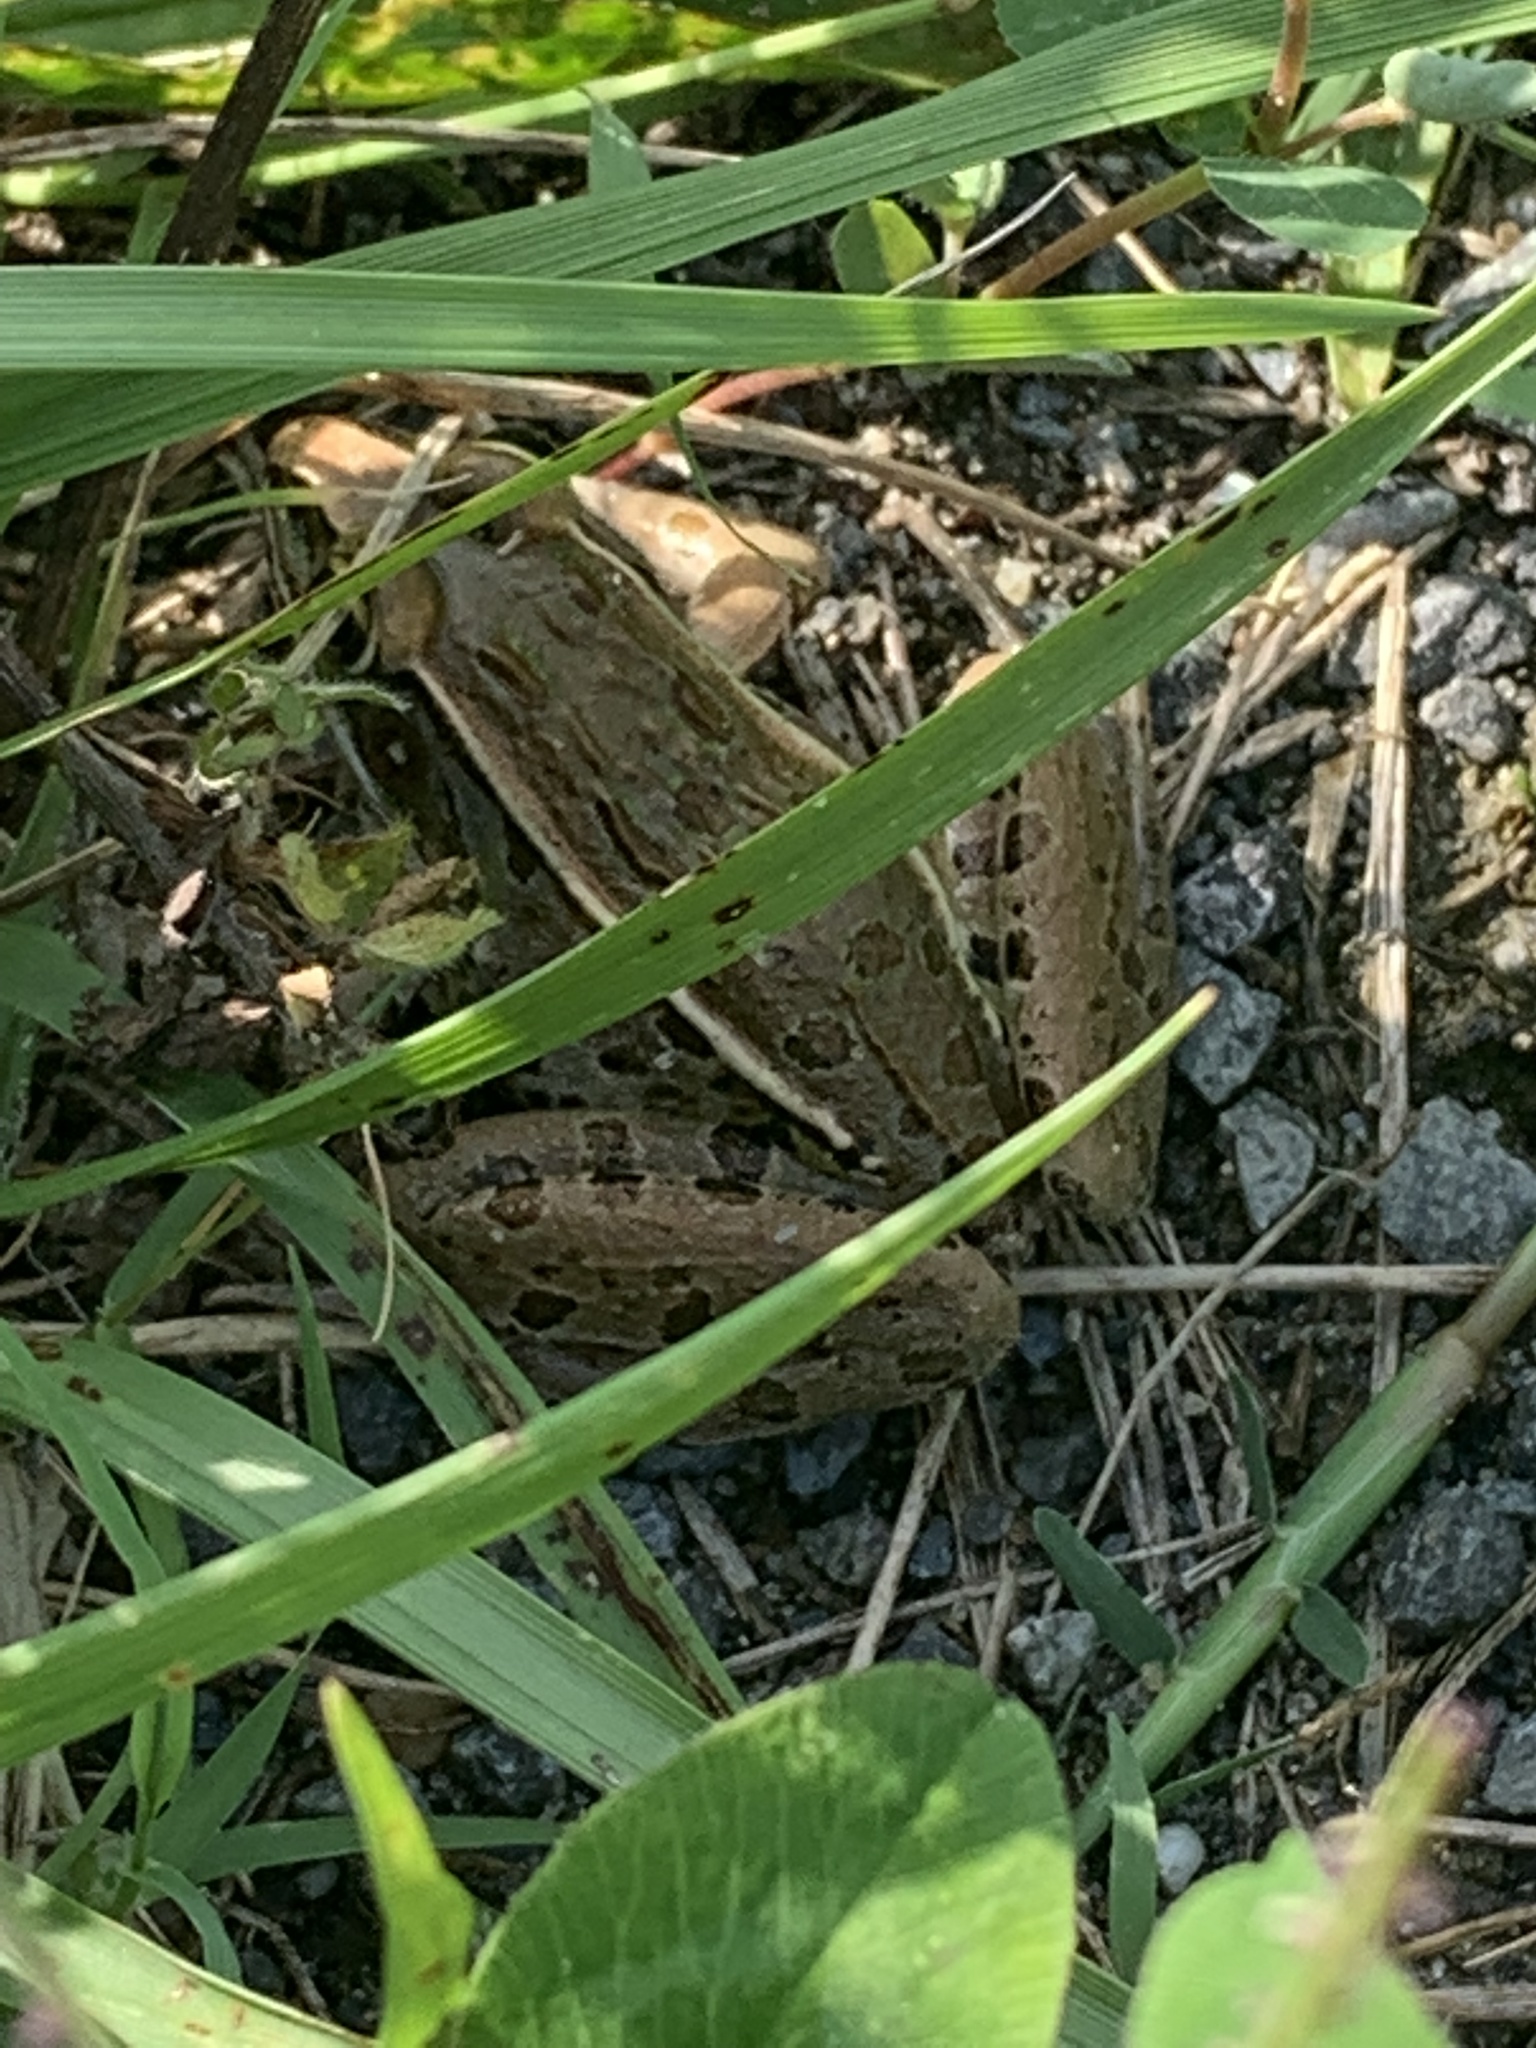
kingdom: Animalia
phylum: Chordata
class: Amphibia
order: Anura
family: Ranidae
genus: Lithobates
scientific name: Lithobates sphenocephalus
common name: Southern leopard frog
